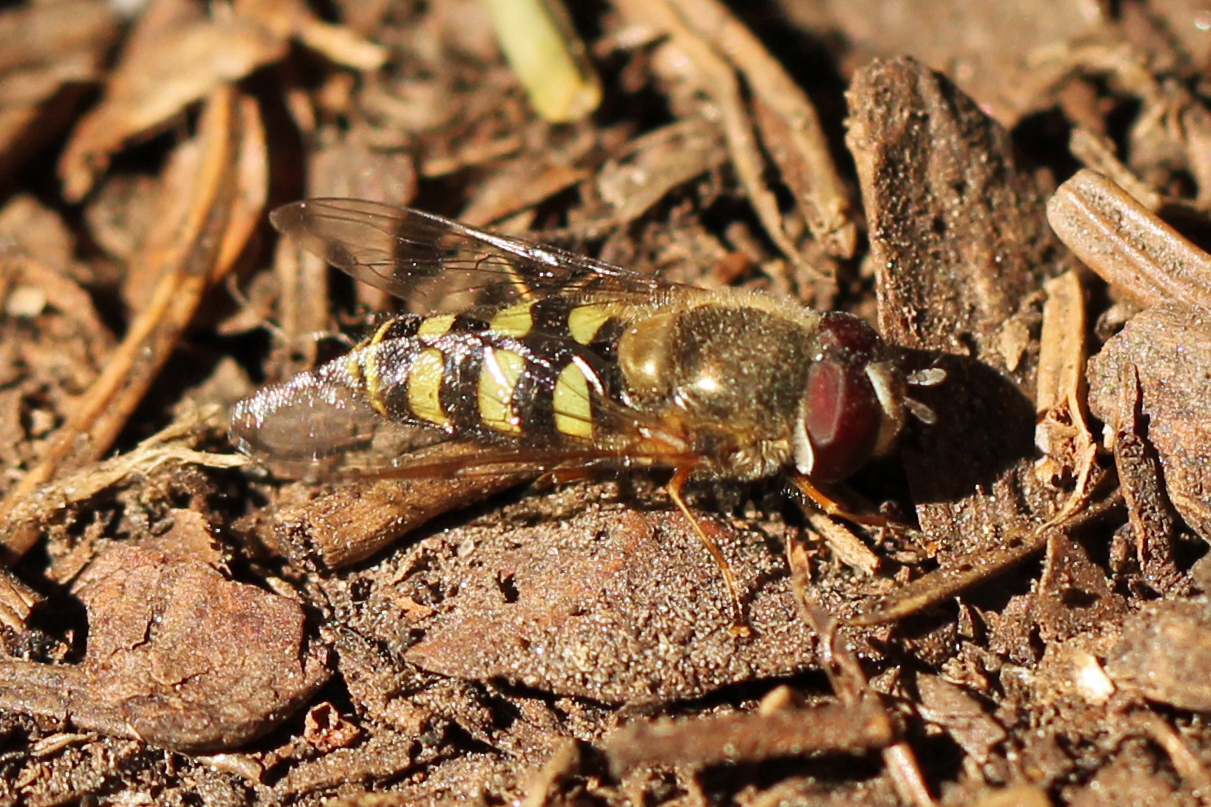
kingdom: Animalia
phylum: Arthropoda
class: Insecta
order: Diptera
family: Syrphidae
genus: Lapposyrphus
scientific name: Lapposyrphus lapponicus
